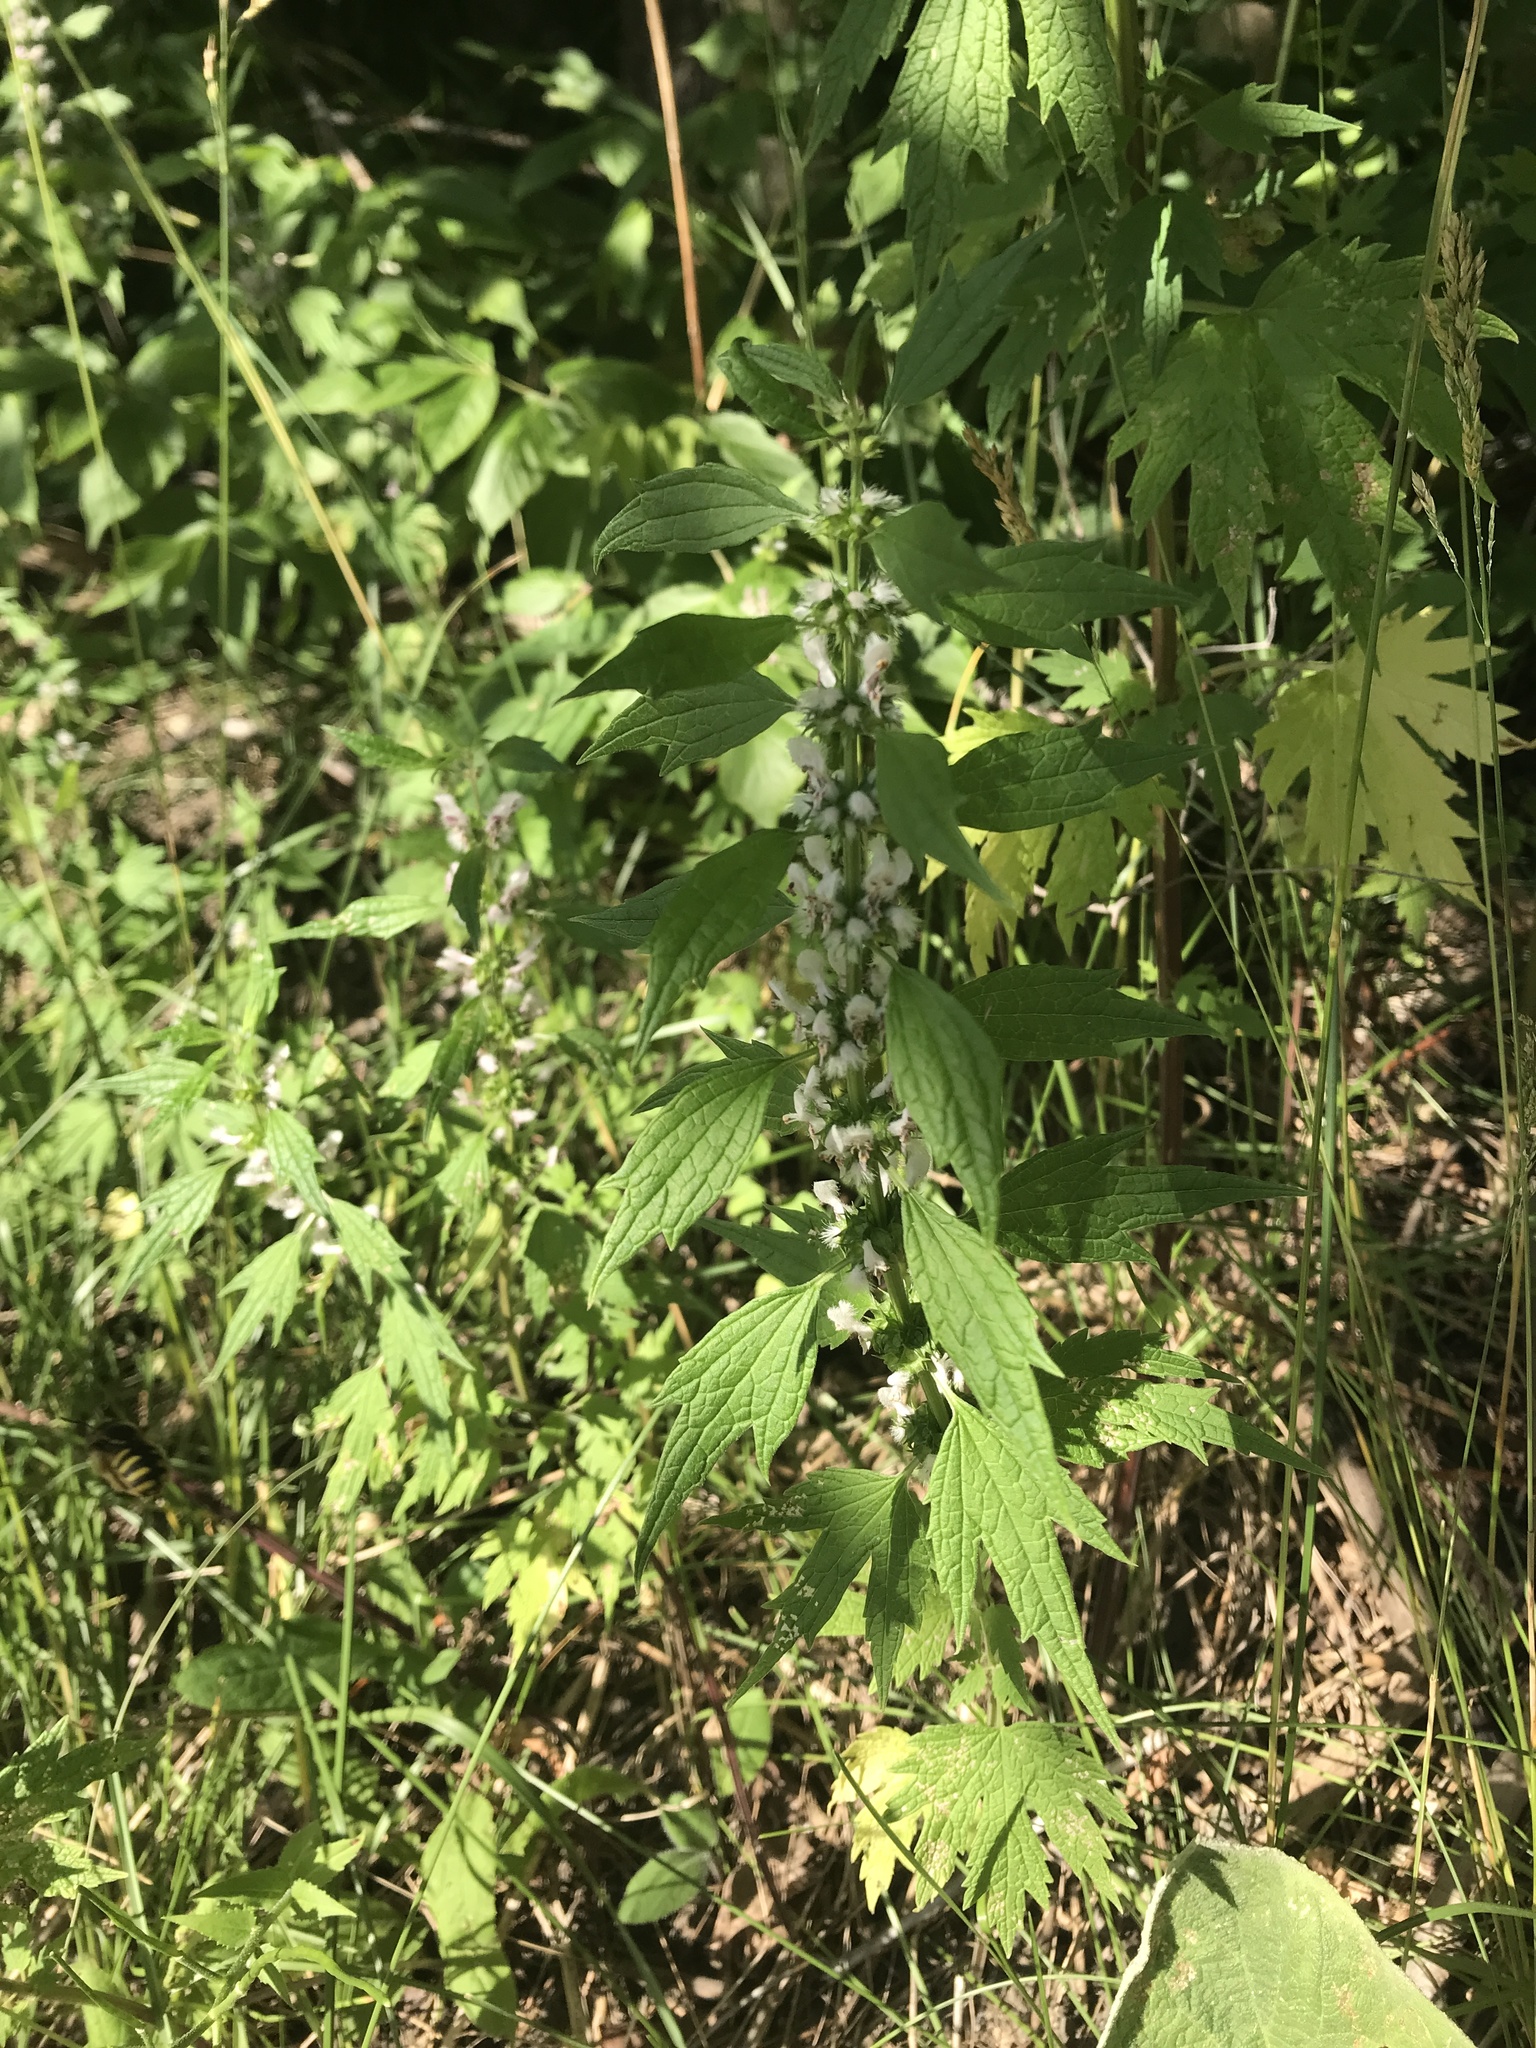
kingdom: Plantae
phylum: Tracheophyta
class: Magnoliopsida
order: Lamiales
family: Lamiaceae
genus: Leonurus
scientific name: Leonurus cardiaca
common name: Motherwort
